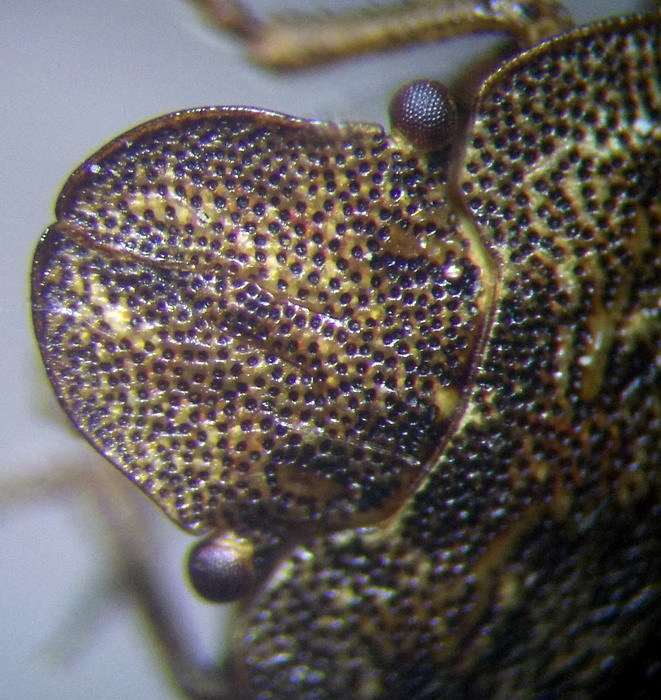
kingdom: Animalia
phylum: Arthropoda
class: Insecta
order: Hemiptera
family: Pentatomidae
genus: Sciocoris
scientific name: Sciocoris homalonotus
